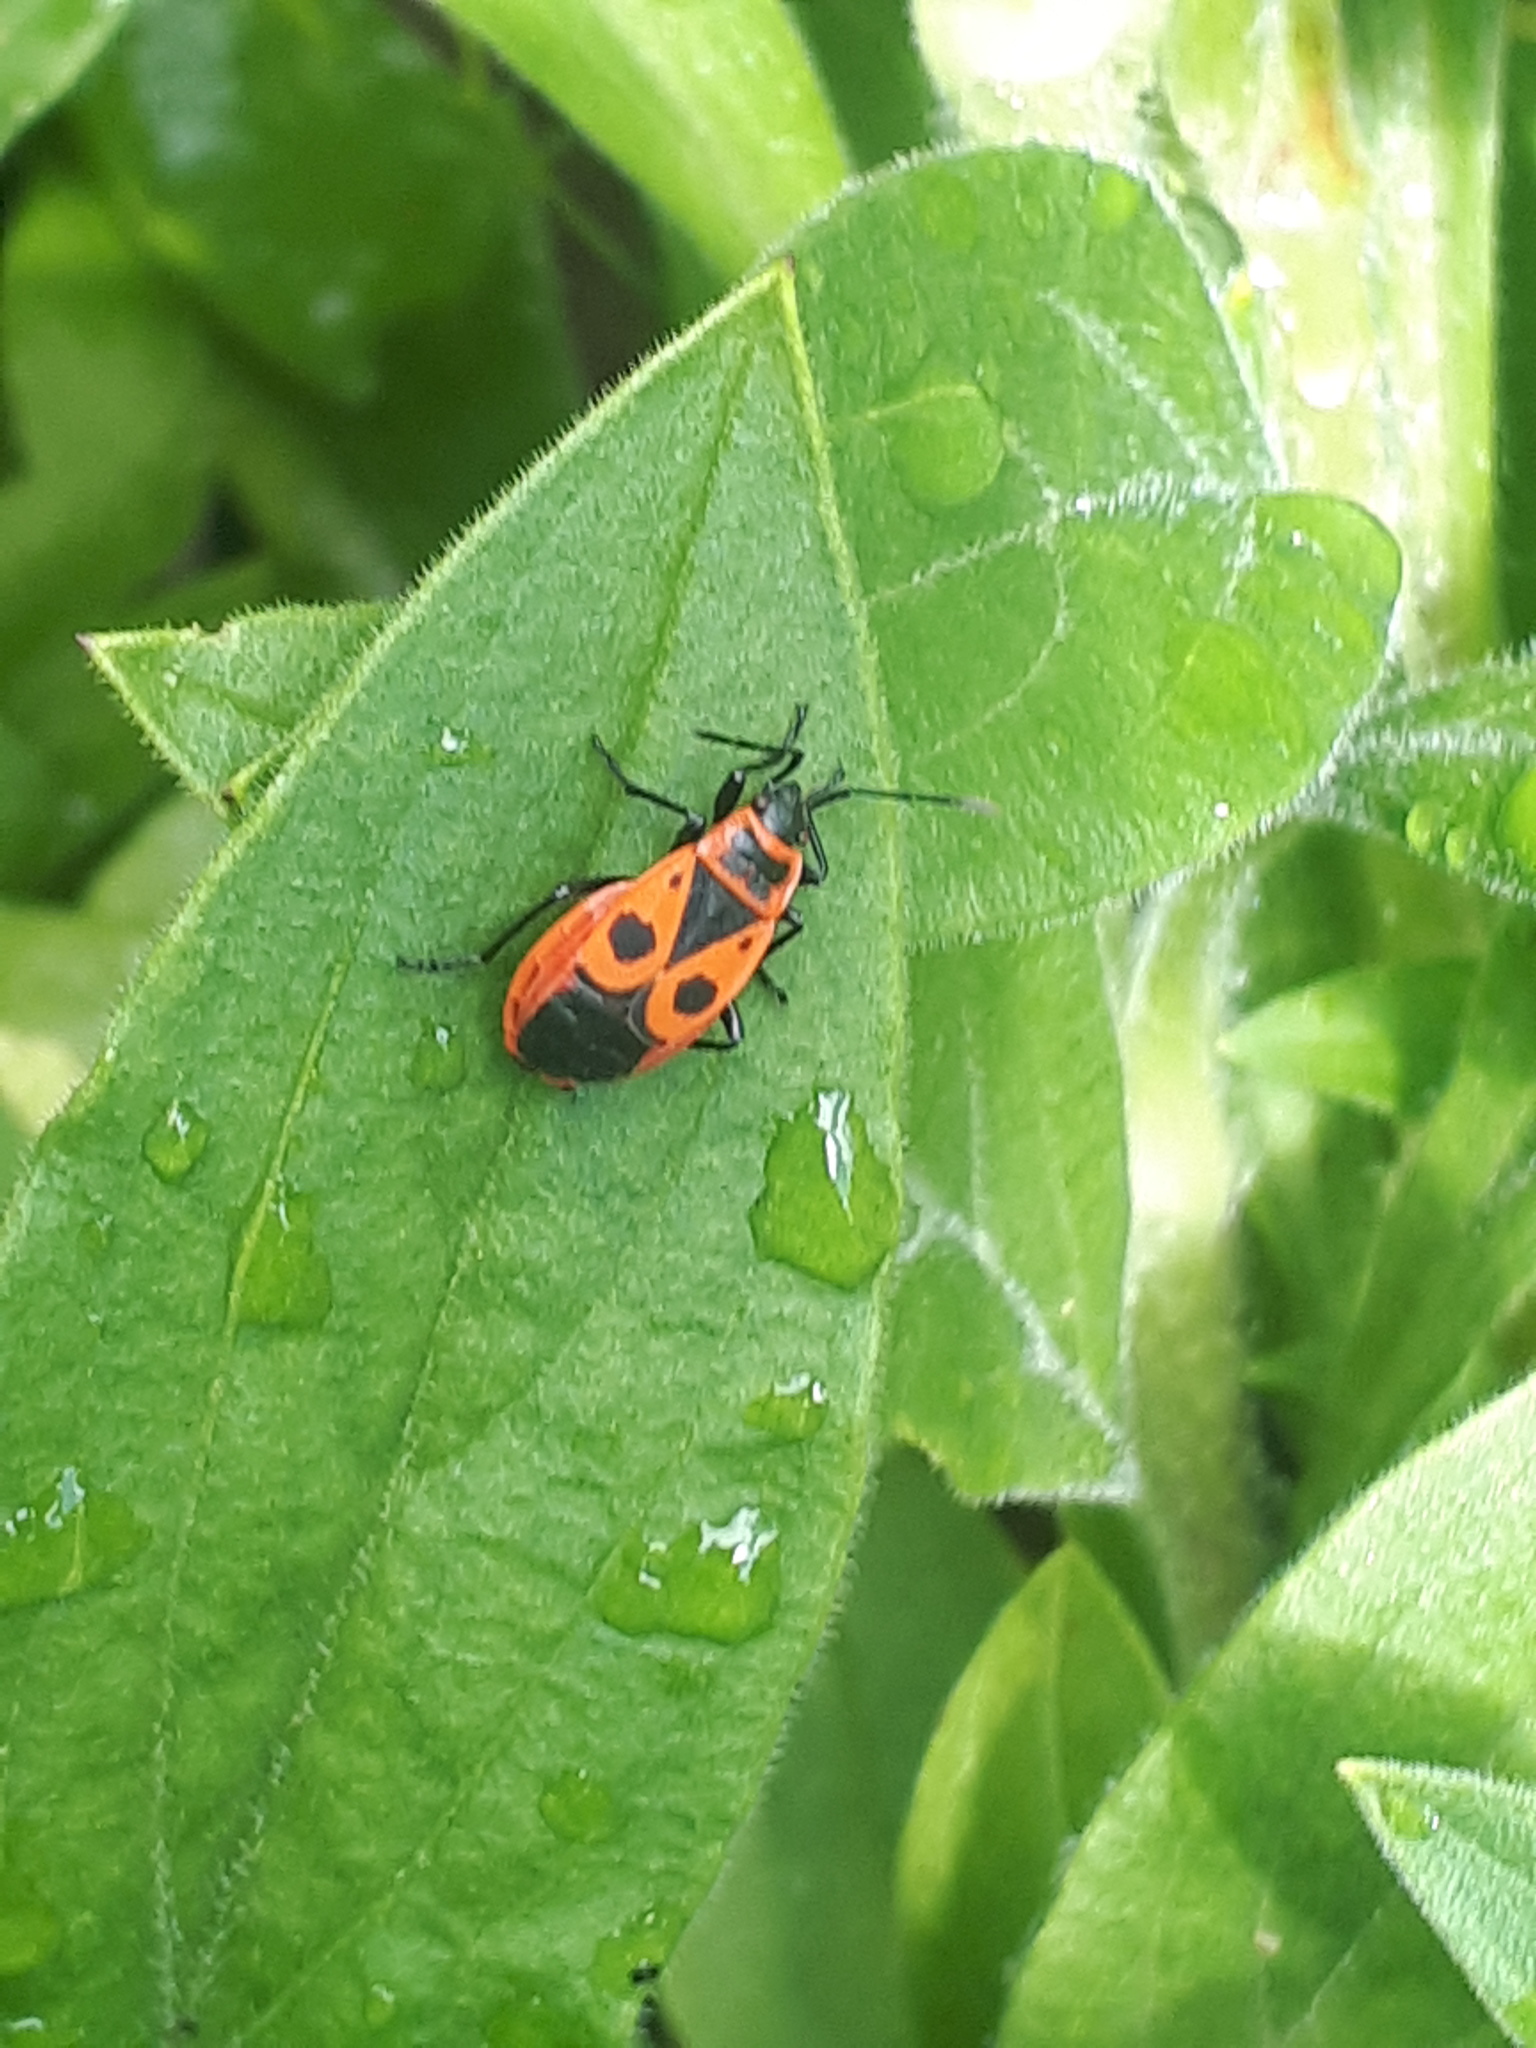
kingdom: Animalia
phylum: Arthropoda
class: Insecta
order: Hemiptera
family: Pyrrhocoridae
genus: Pyrrhocoris
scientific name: Pyrrhocoris apterus
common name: Firebug
